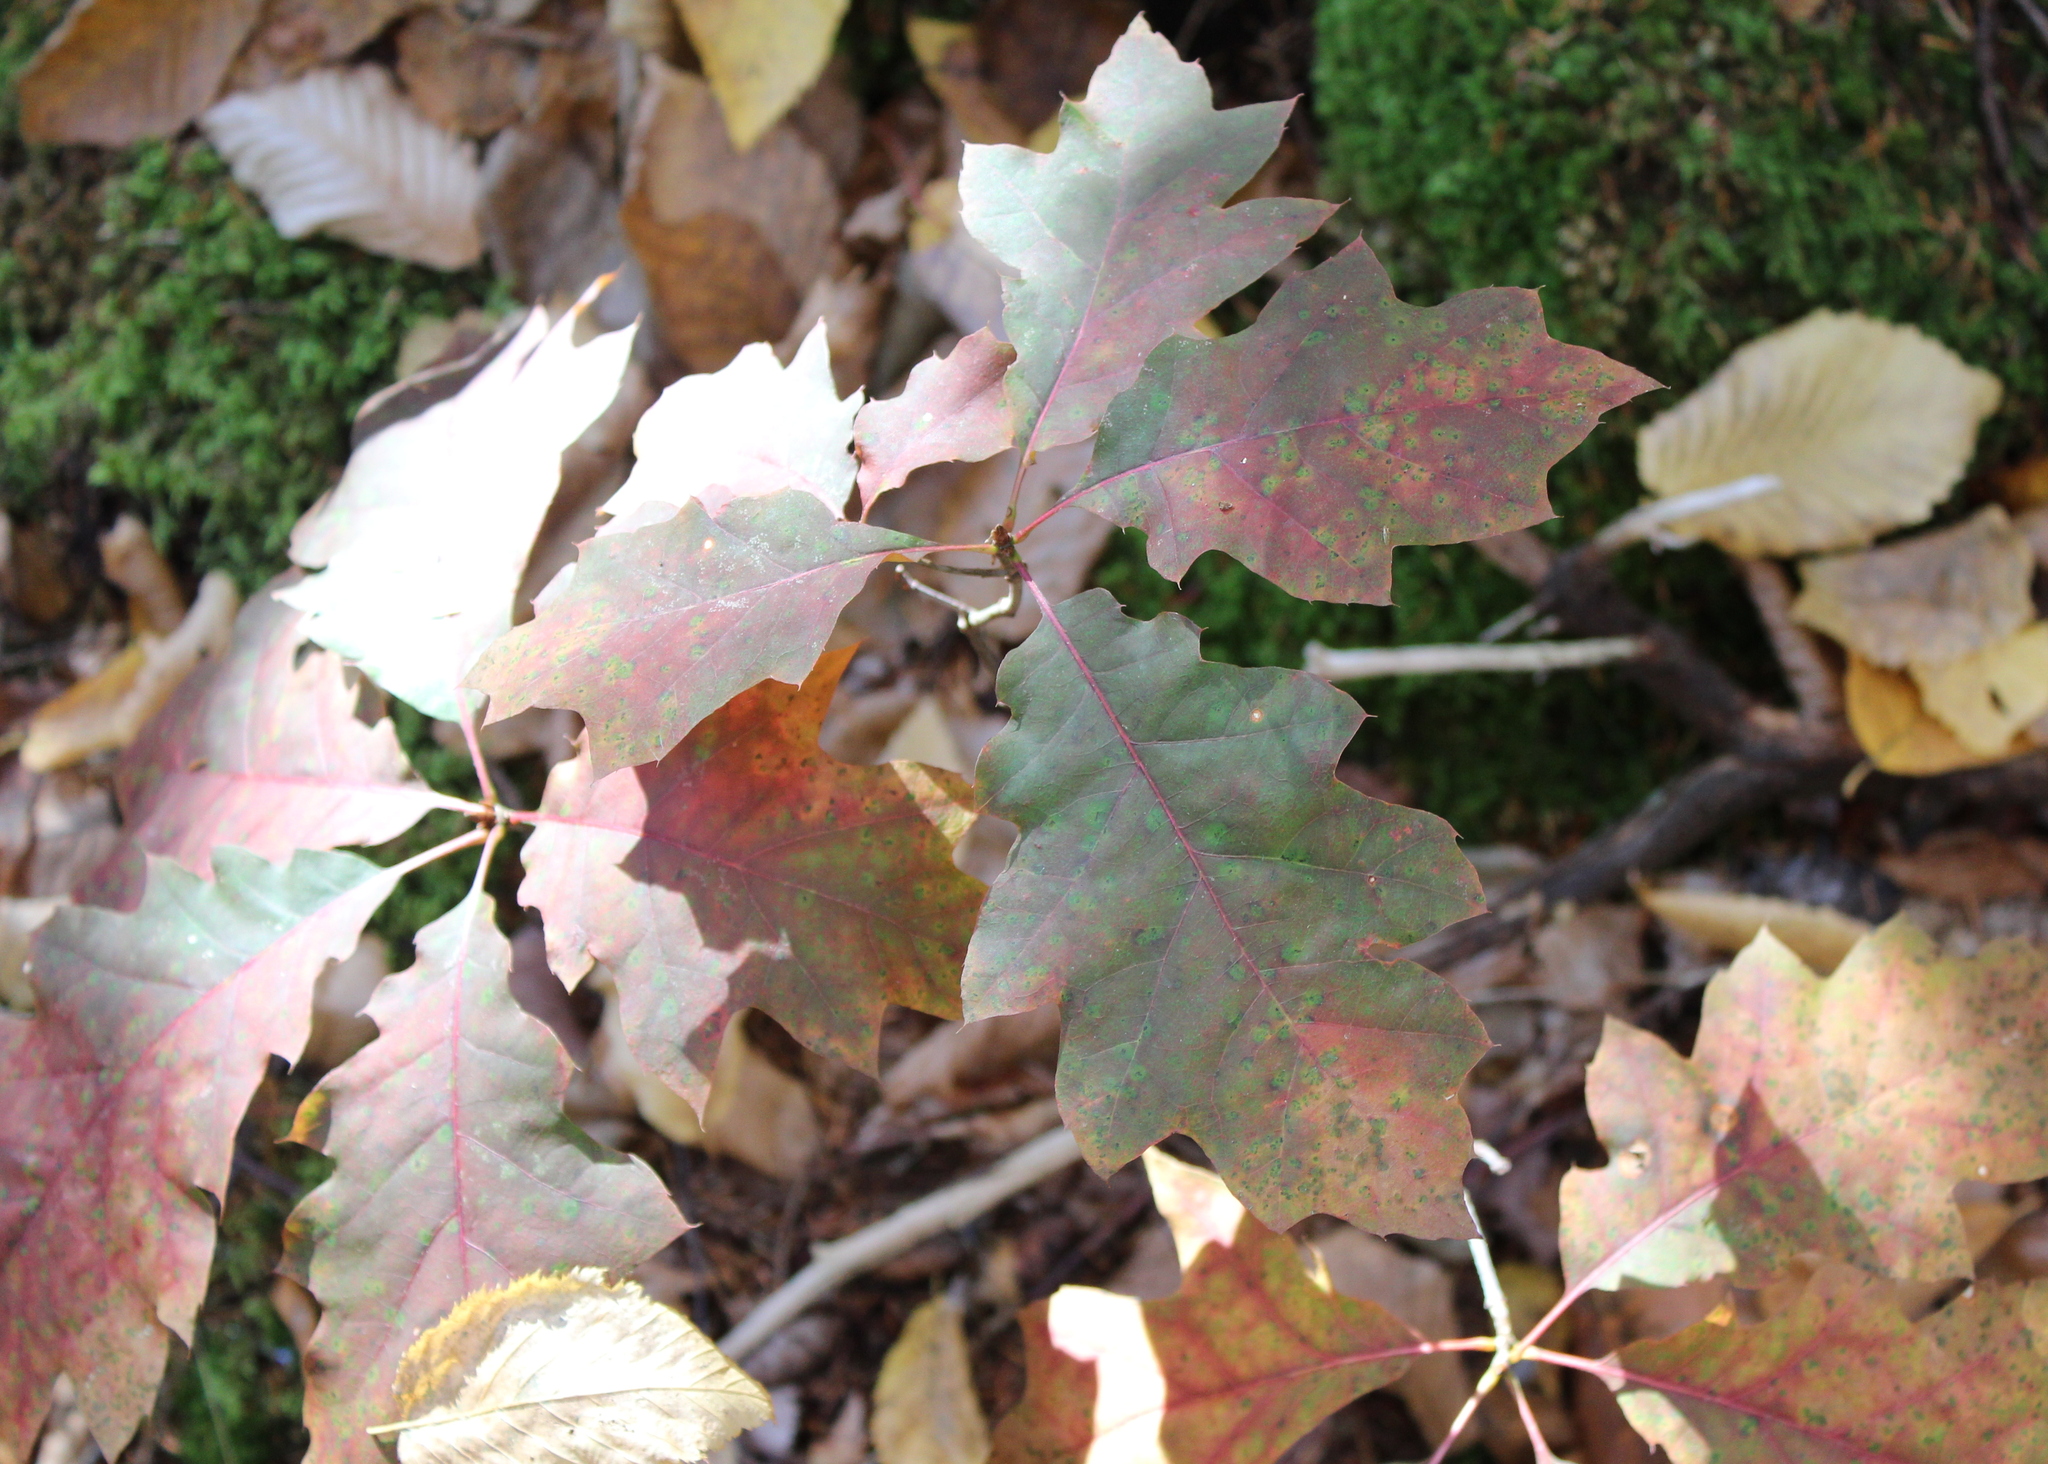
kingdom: Plantae
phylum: Tracheophyta
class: Magnoliopsida
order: Fagales
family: Fagaceae
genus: Quercus
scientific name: Quercus rubra
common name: Red oak
